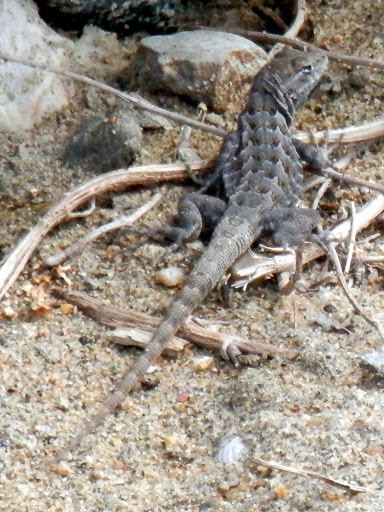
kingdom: Animalia
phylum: Chordata
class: Squamata
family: Phrynosomatidae
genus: Sceloporus
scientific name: Sceloporus occidentalis
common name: Western fence lizard
